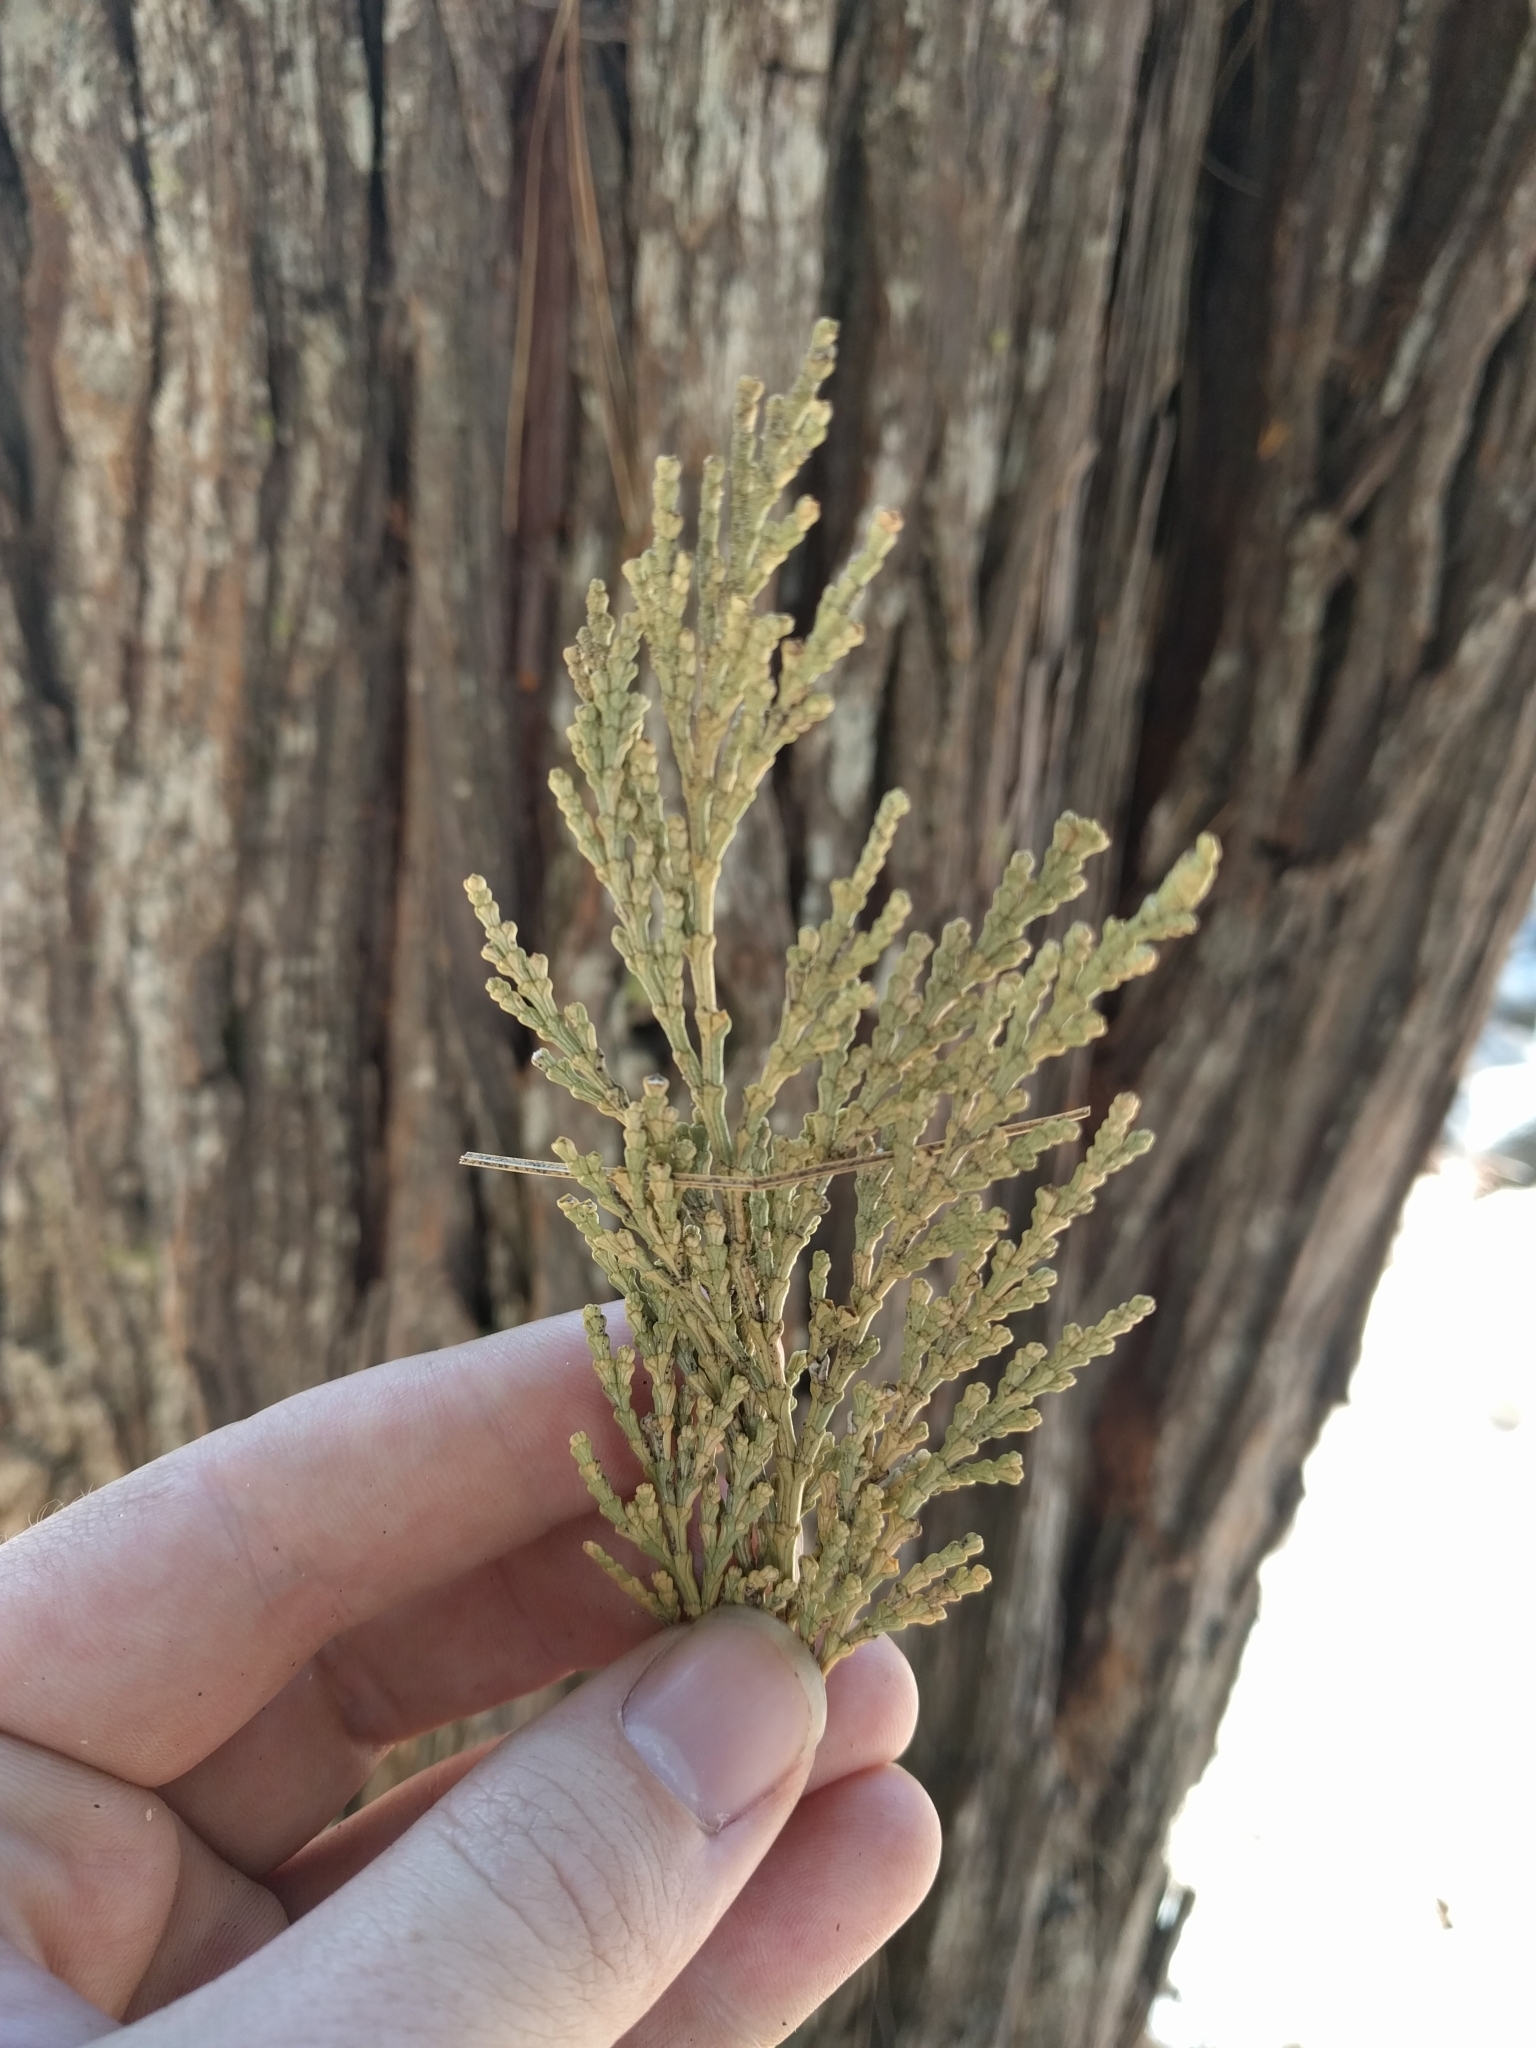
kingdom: Plantae
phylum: Tracheophyta
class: Pinopsida
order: Pinales
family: Cupressaceae
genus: Calocedrus
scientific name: Calocedrus decurrens
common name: Californian incense-cedar
